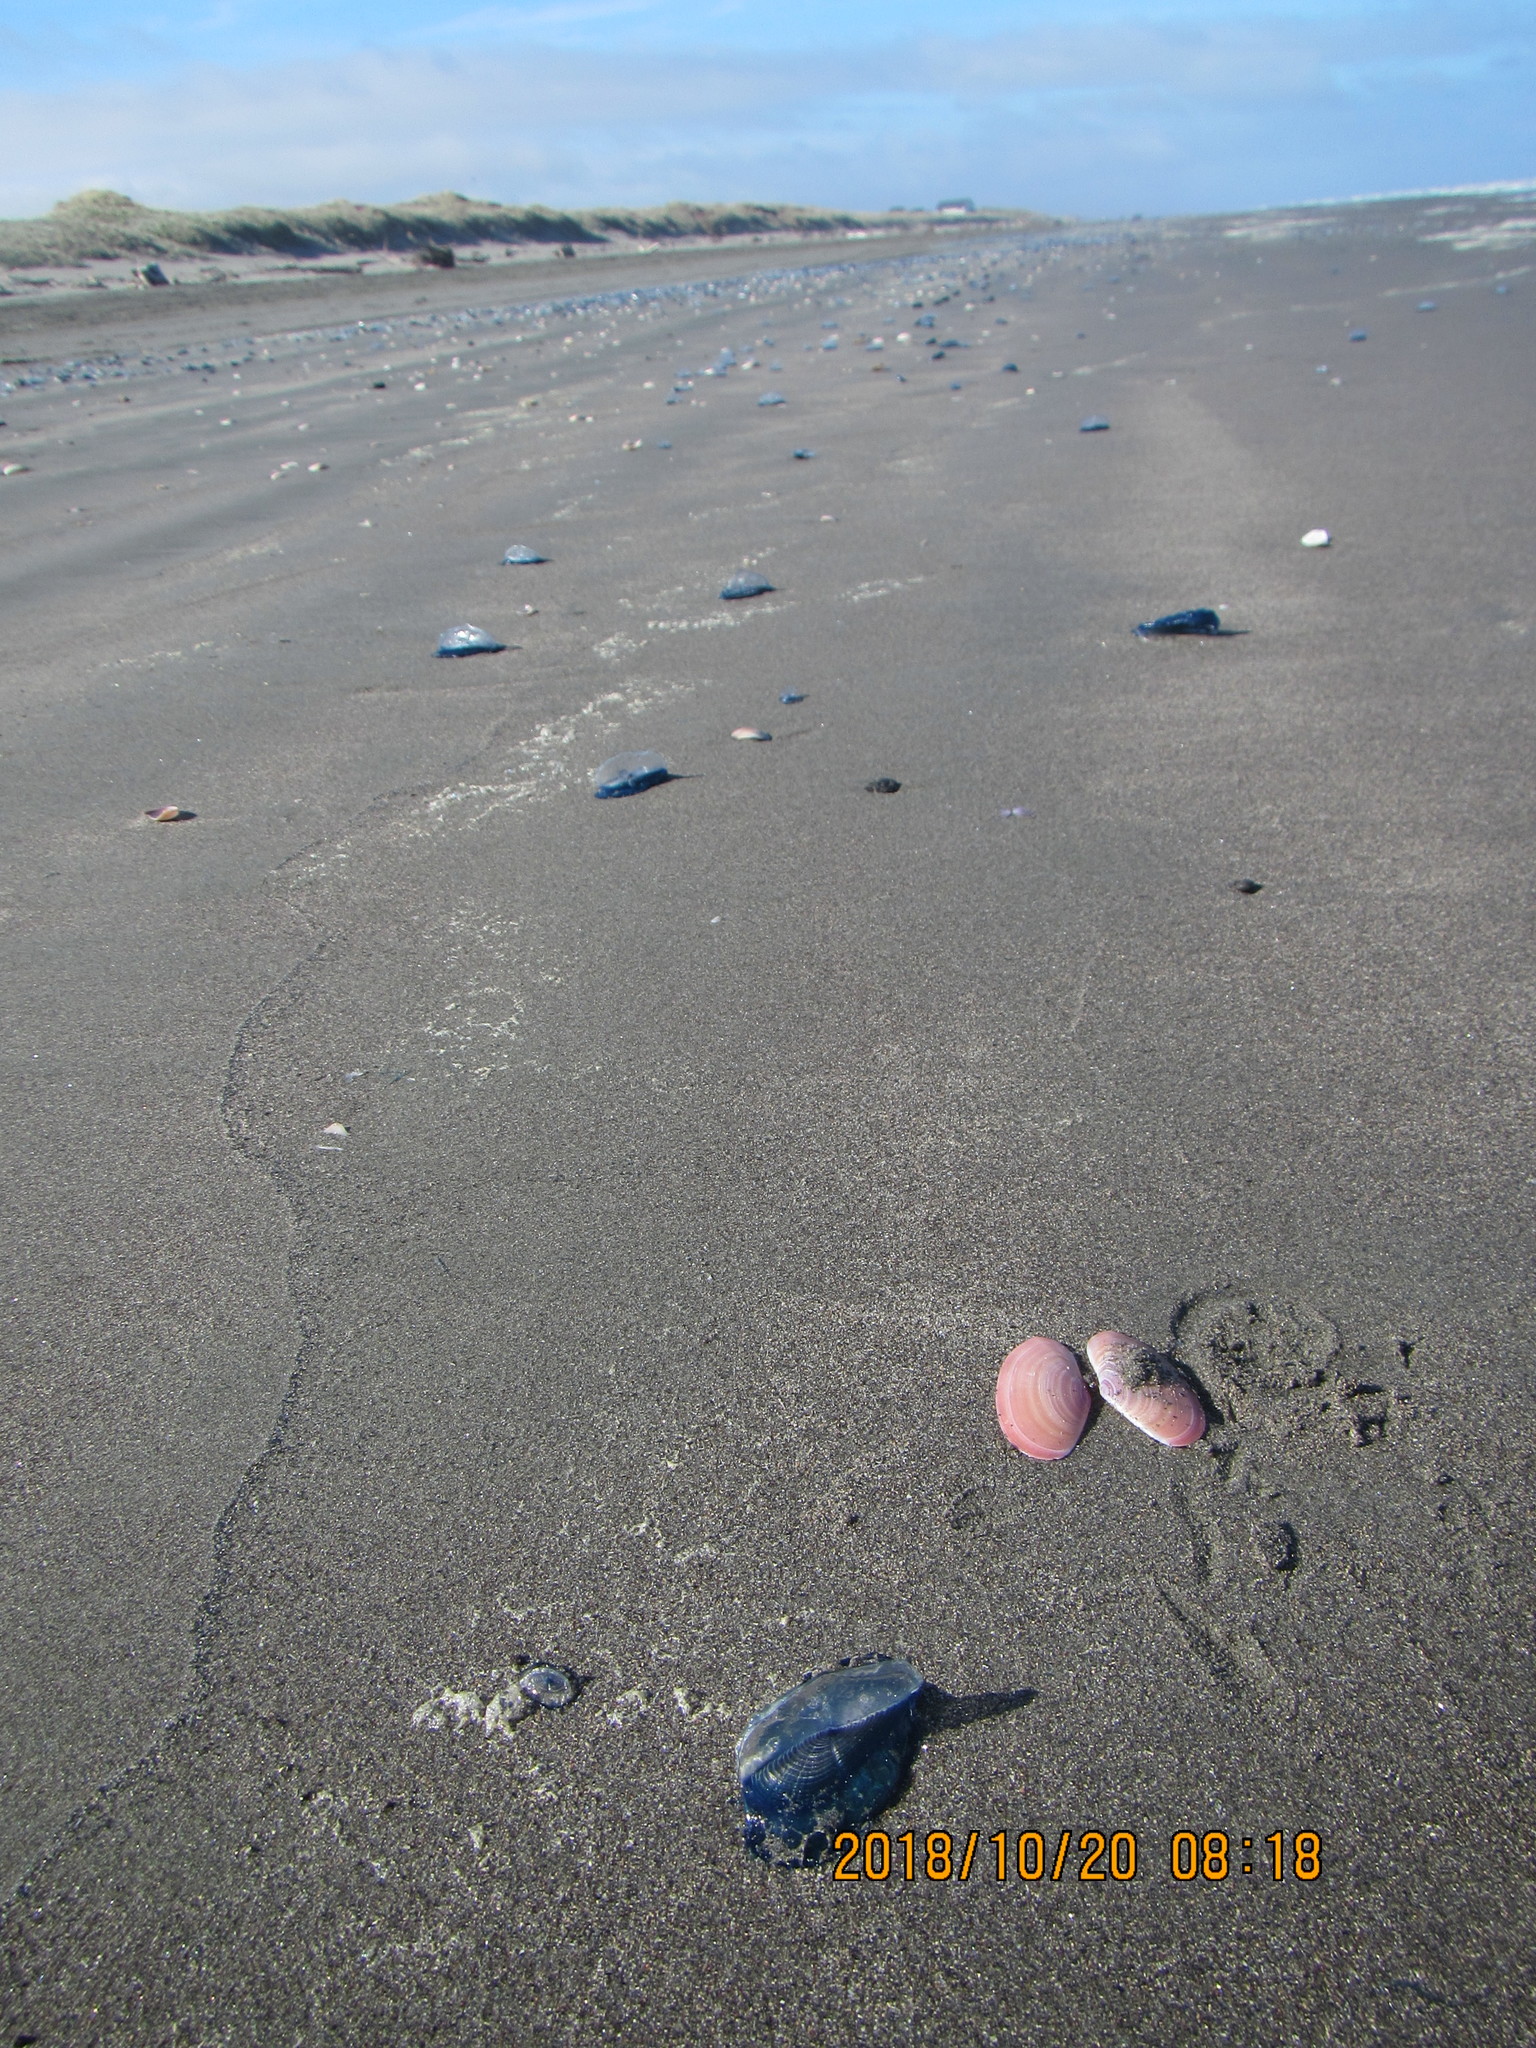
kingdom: Animalia
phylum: Mollusca
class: Bivalvia
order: Cardiida
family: Psammobiidae
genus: Gari
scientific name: Gari lineolata
